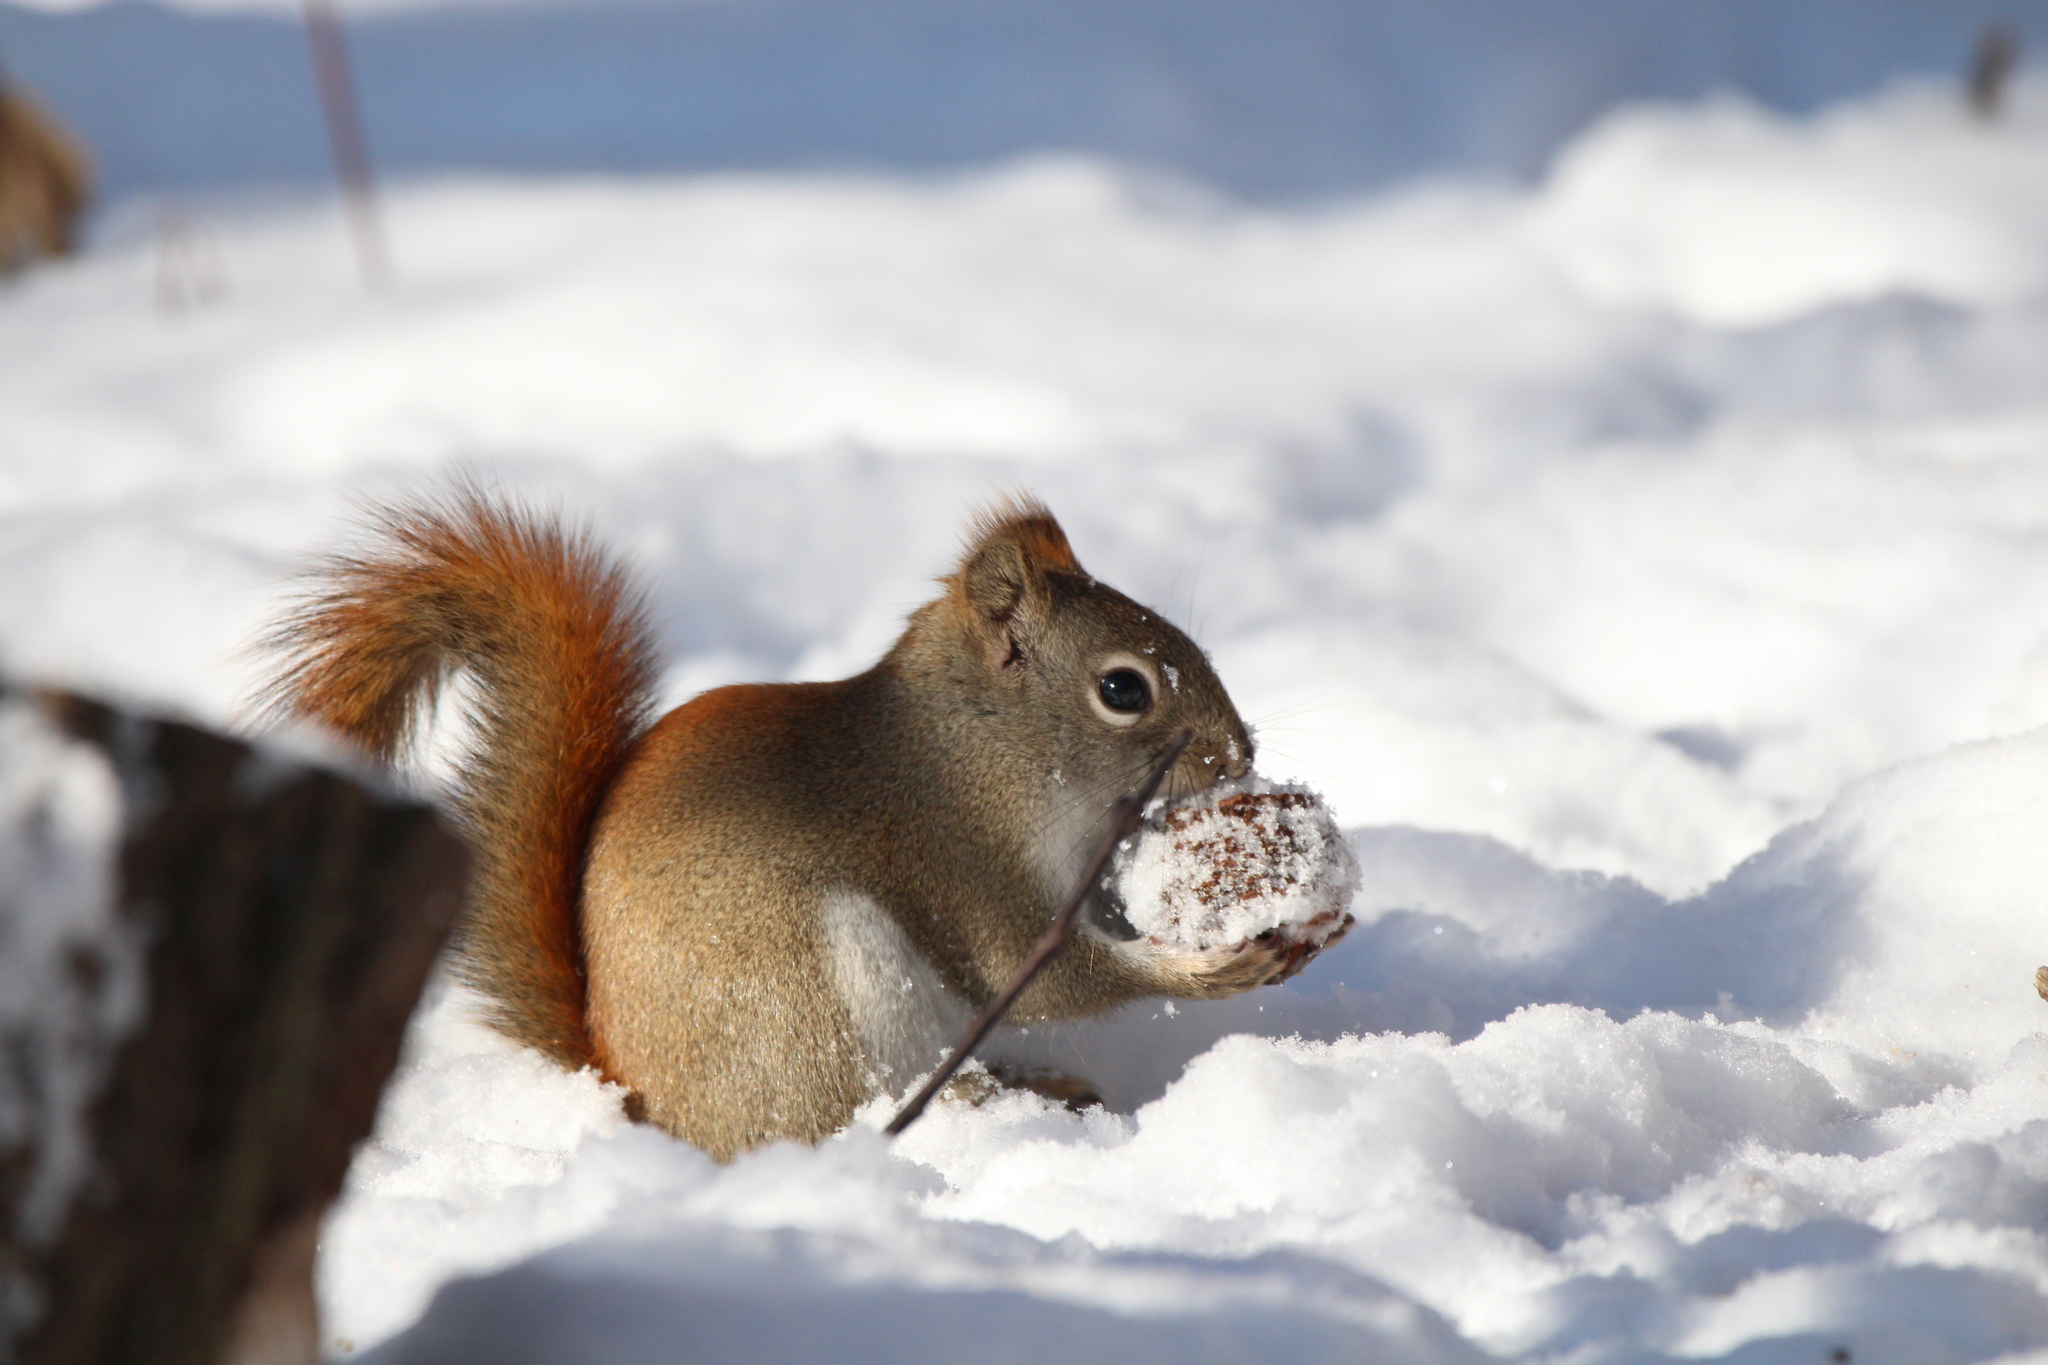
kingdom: Animalia
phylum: Chordata
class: Mammalia
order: Rodentia
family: Sciuridae
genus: Tamiasciurus
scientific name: Tamiasciurus hudsonicus
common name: Red squirrel
